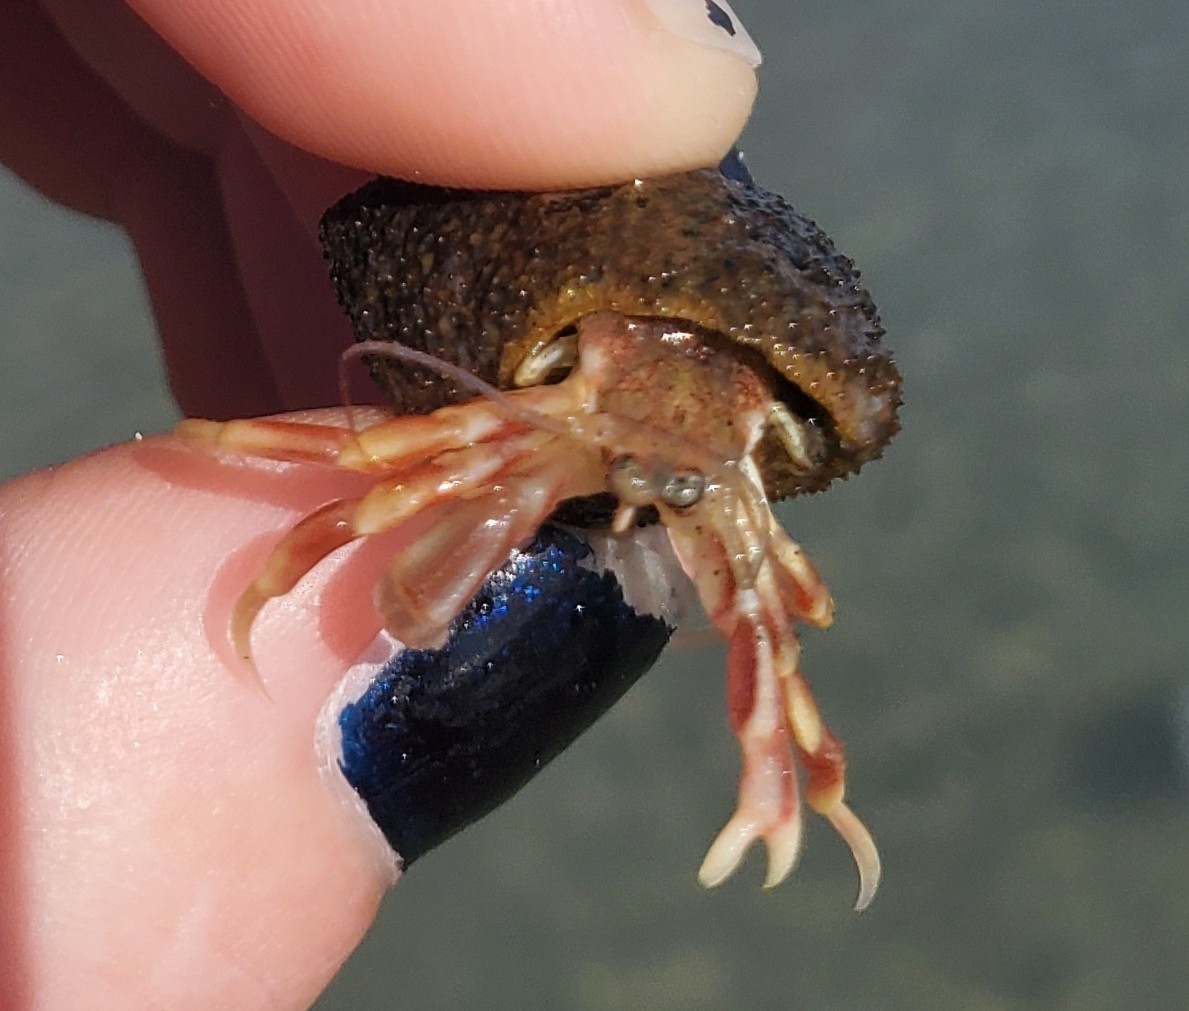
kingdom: Animalia
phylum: Arthropoda
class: Malacostraca
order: Decapoda
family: Paguridae
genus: Pagurus
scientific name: Pagurus longicarpus
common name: Long-armed hermit crab
